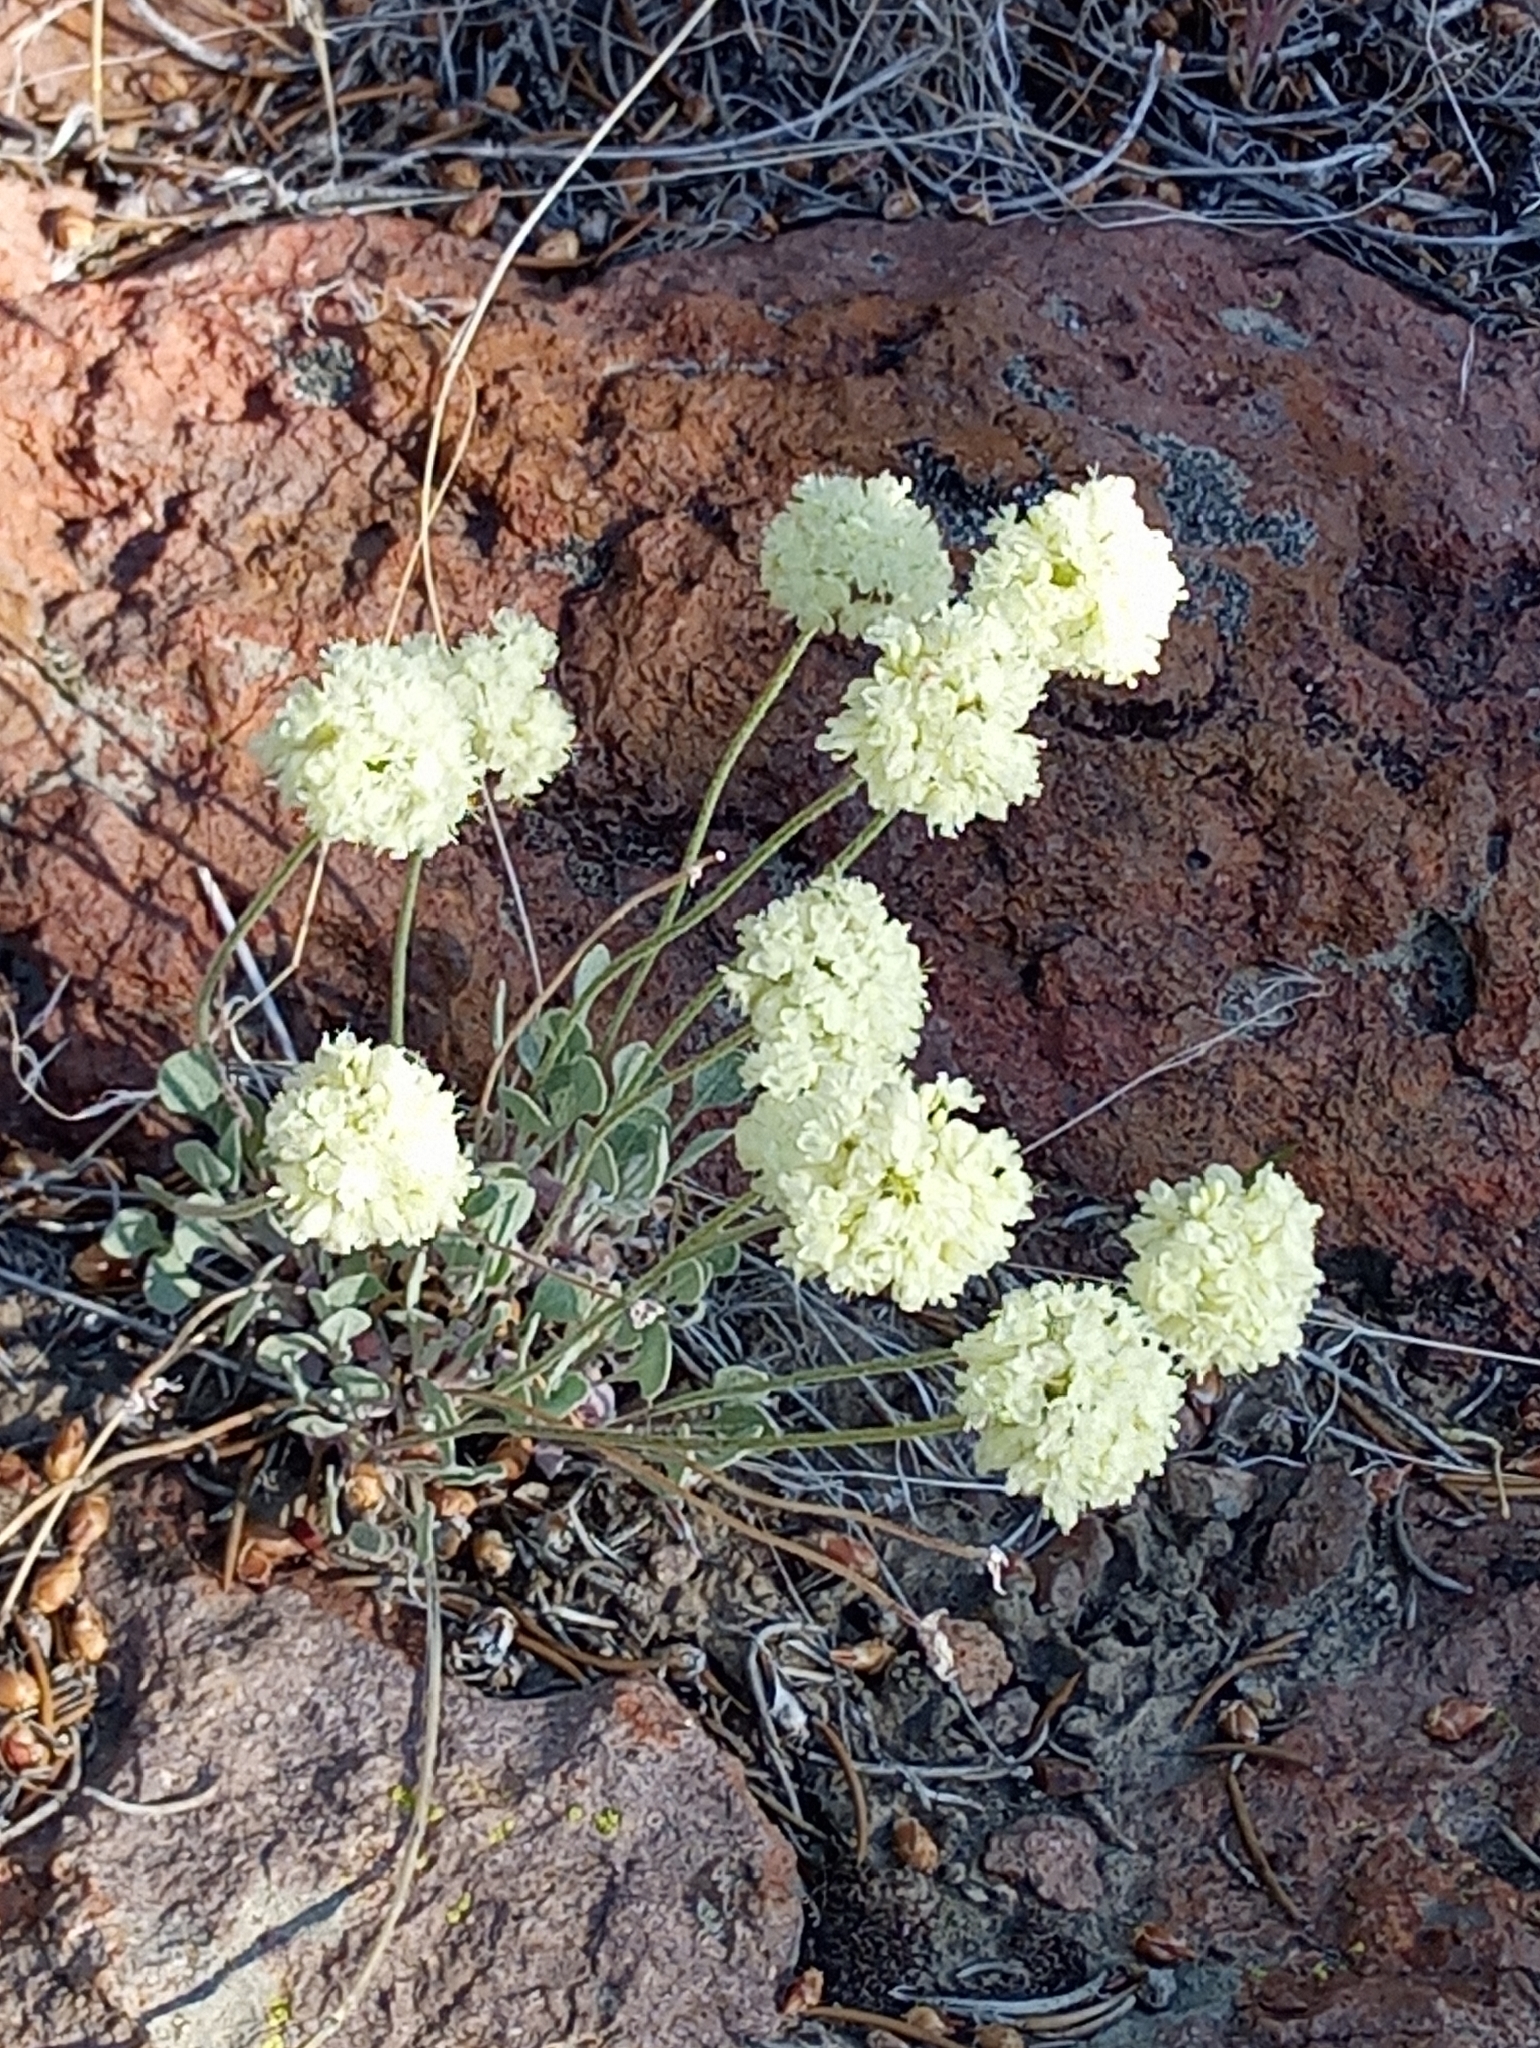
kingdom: Plantae
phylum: Tracheophyta
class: Magnoliopsida
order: Caryophyllales
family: Polygonaceae
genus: Eriogonum
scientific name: Eriogonum ovalifolium
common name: Cushion buckwheat
